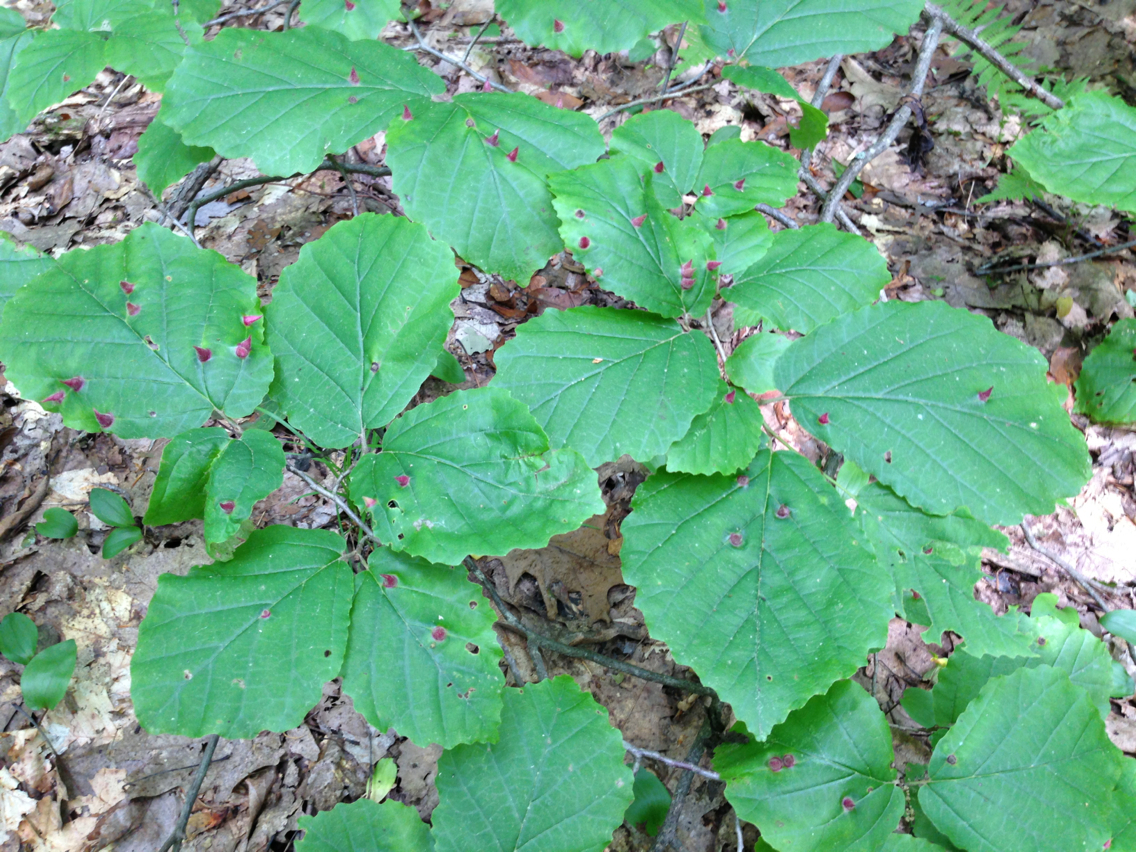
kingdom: Plantae
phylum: Tracheophyta
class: Magnoliopsida
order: Saxifragales
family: Hamamelidaceae
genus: Hamamelis
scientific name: Hamamelis virginiana
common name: Witch-hazel
